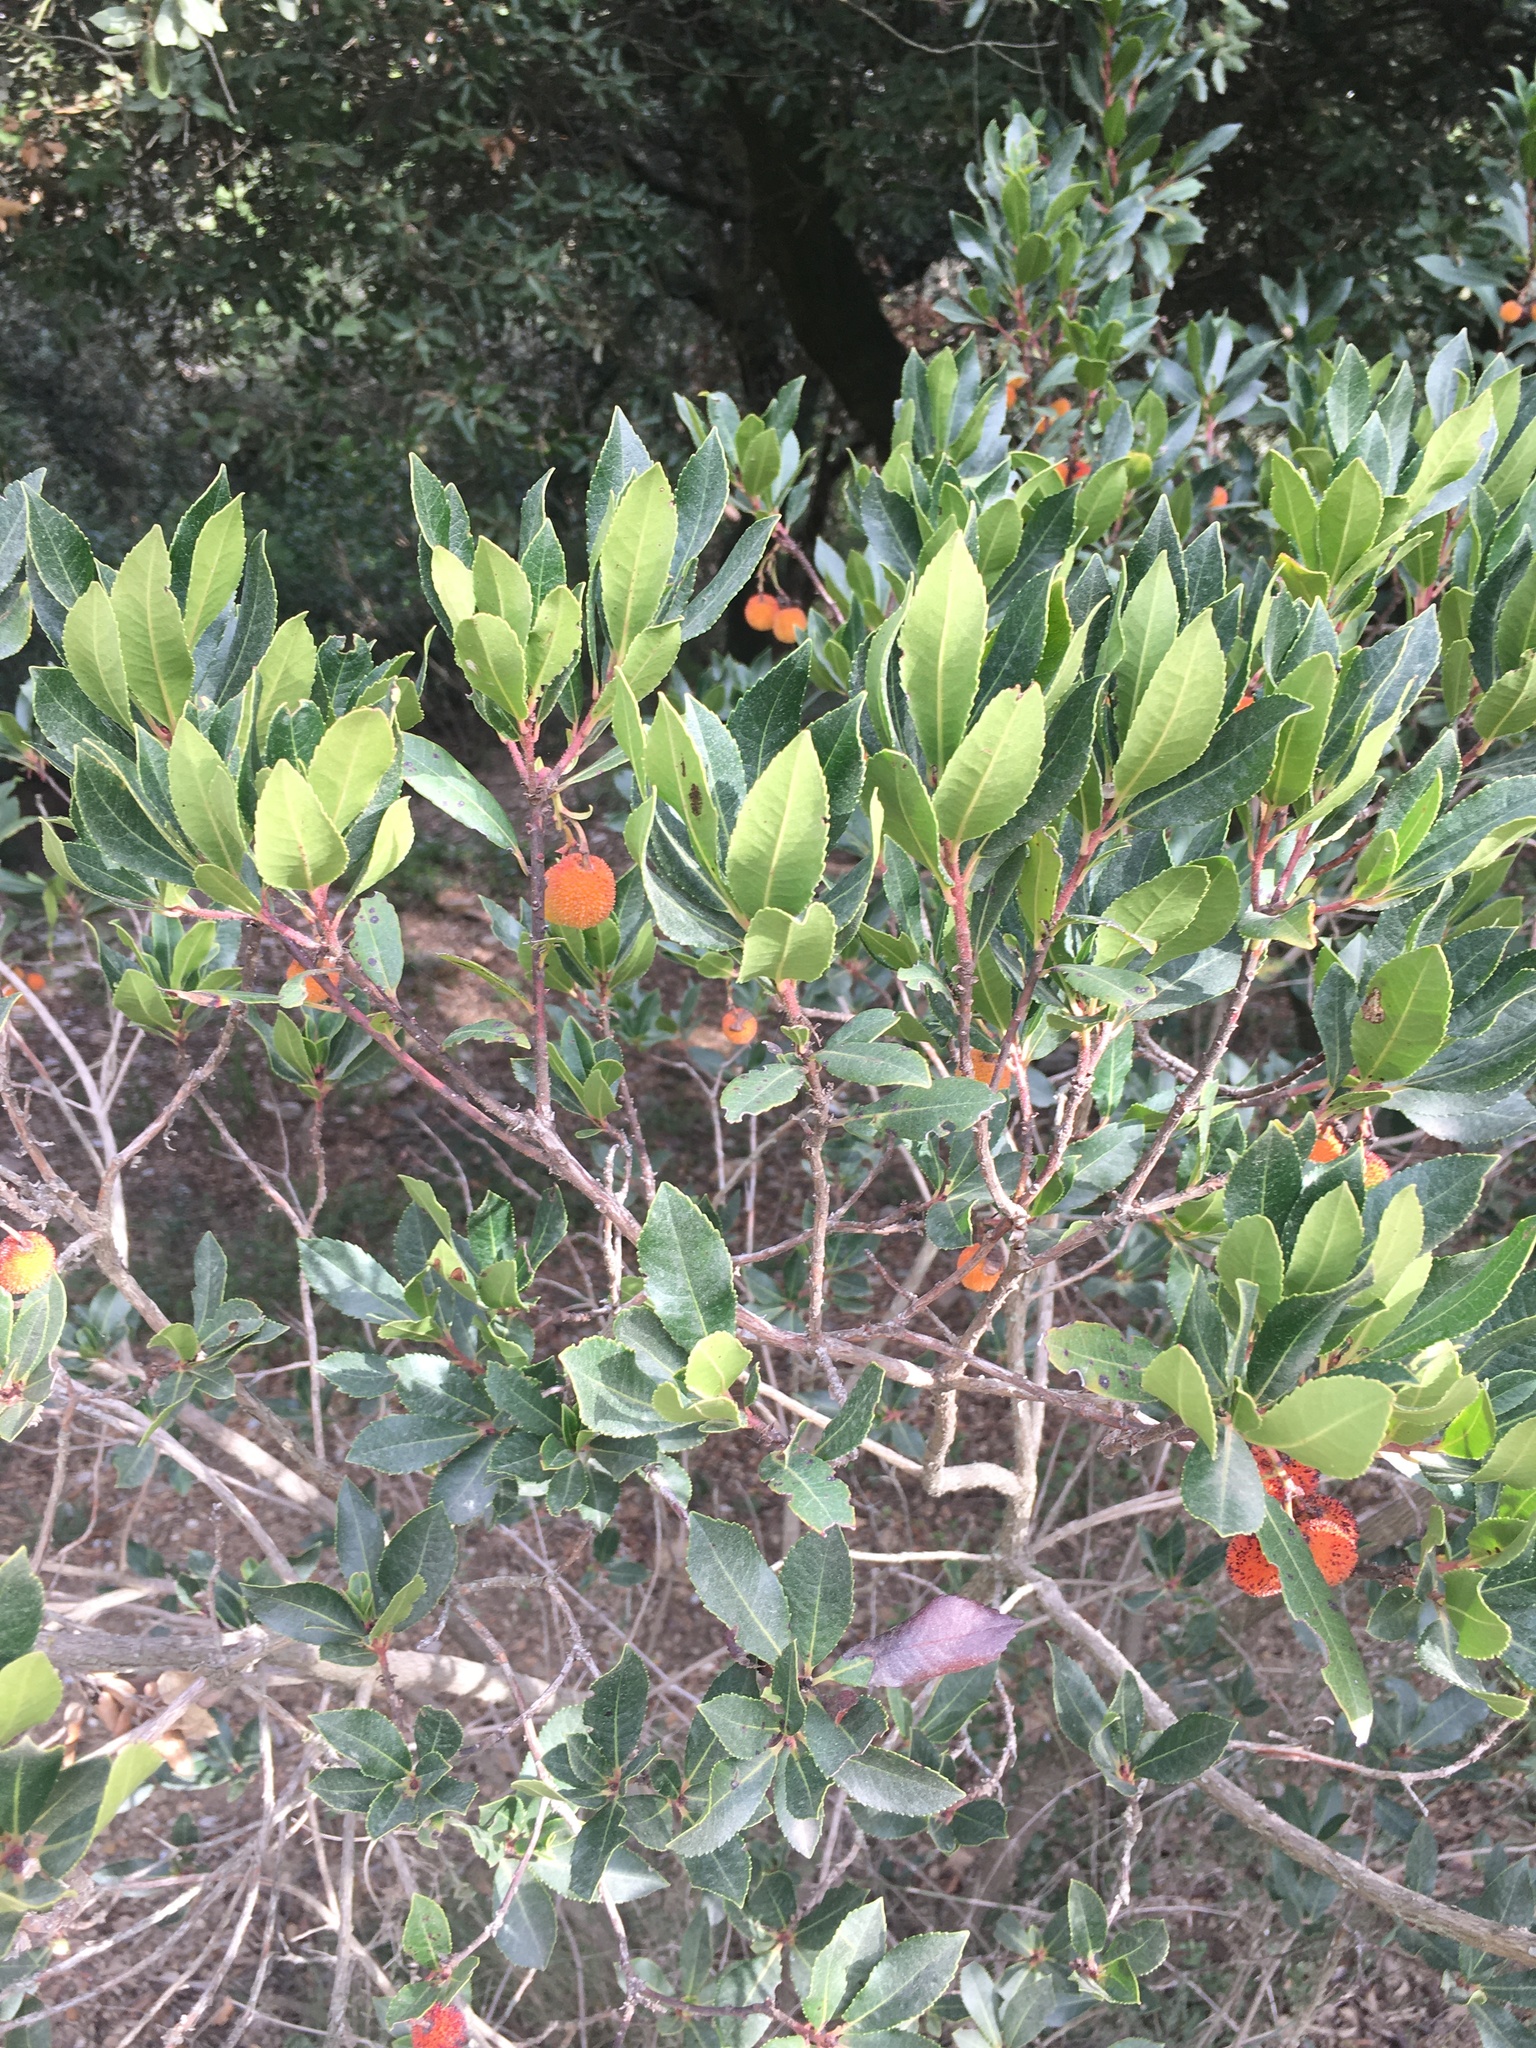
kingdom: Plantae
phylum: Tracheophyta
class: Magnoliopsida
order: Ericales
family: Ericaceae
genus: Arbutus
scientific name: Arbutus unedo
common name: Strawberry-tree
